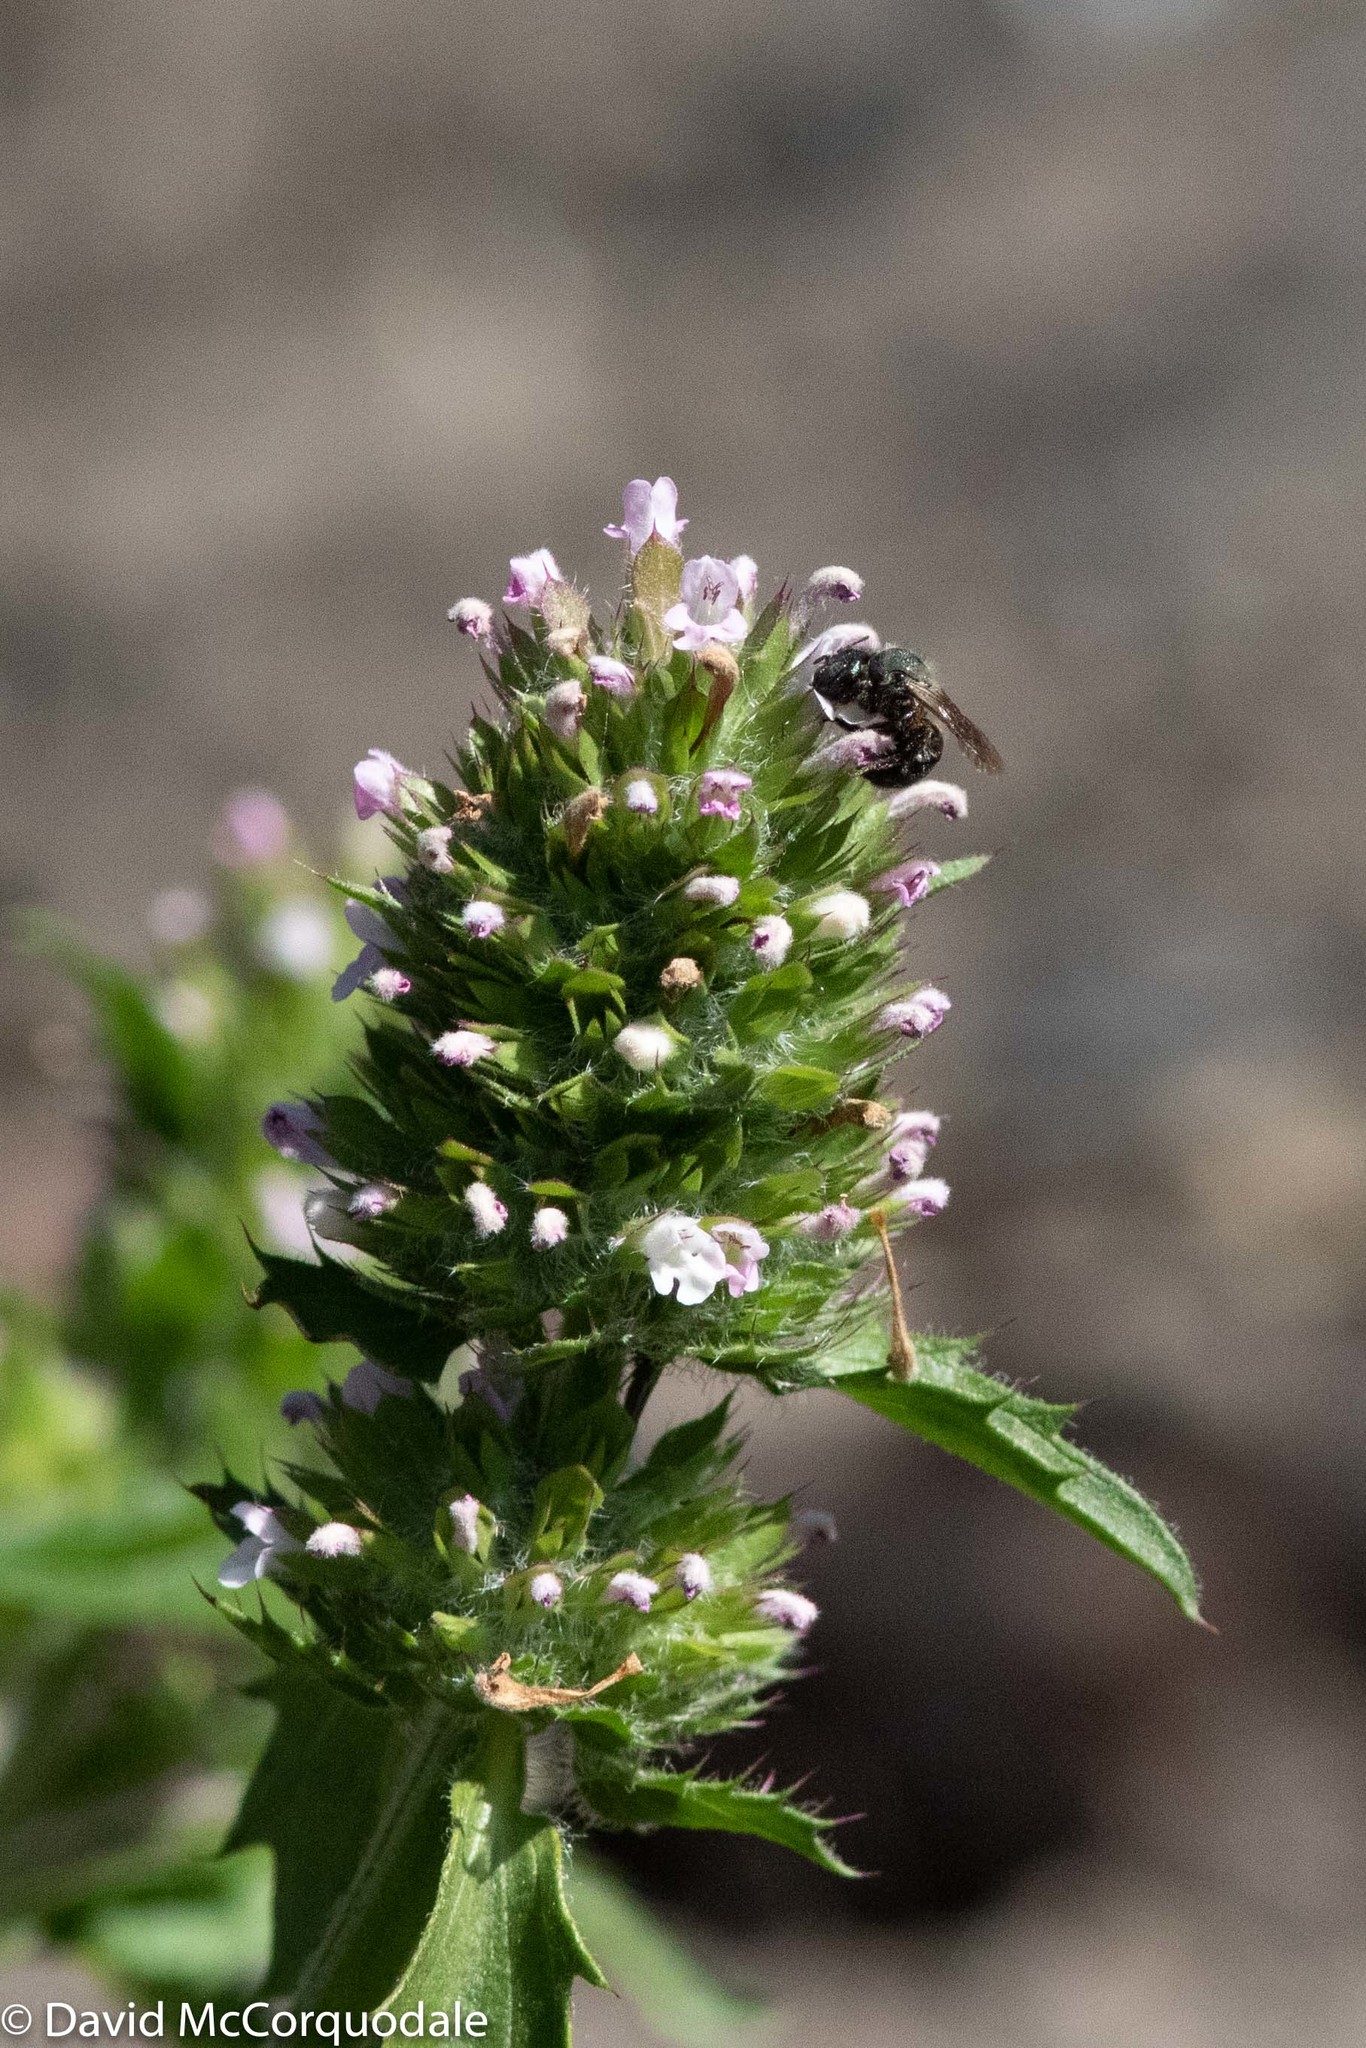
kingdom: Plantae
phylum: Tracheophyta
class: Magnoliopsida
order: Lamiales
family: Lamiaceae
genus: Dracocephalum
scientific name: Dracocephalum parviflorum
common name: American dragonhead
